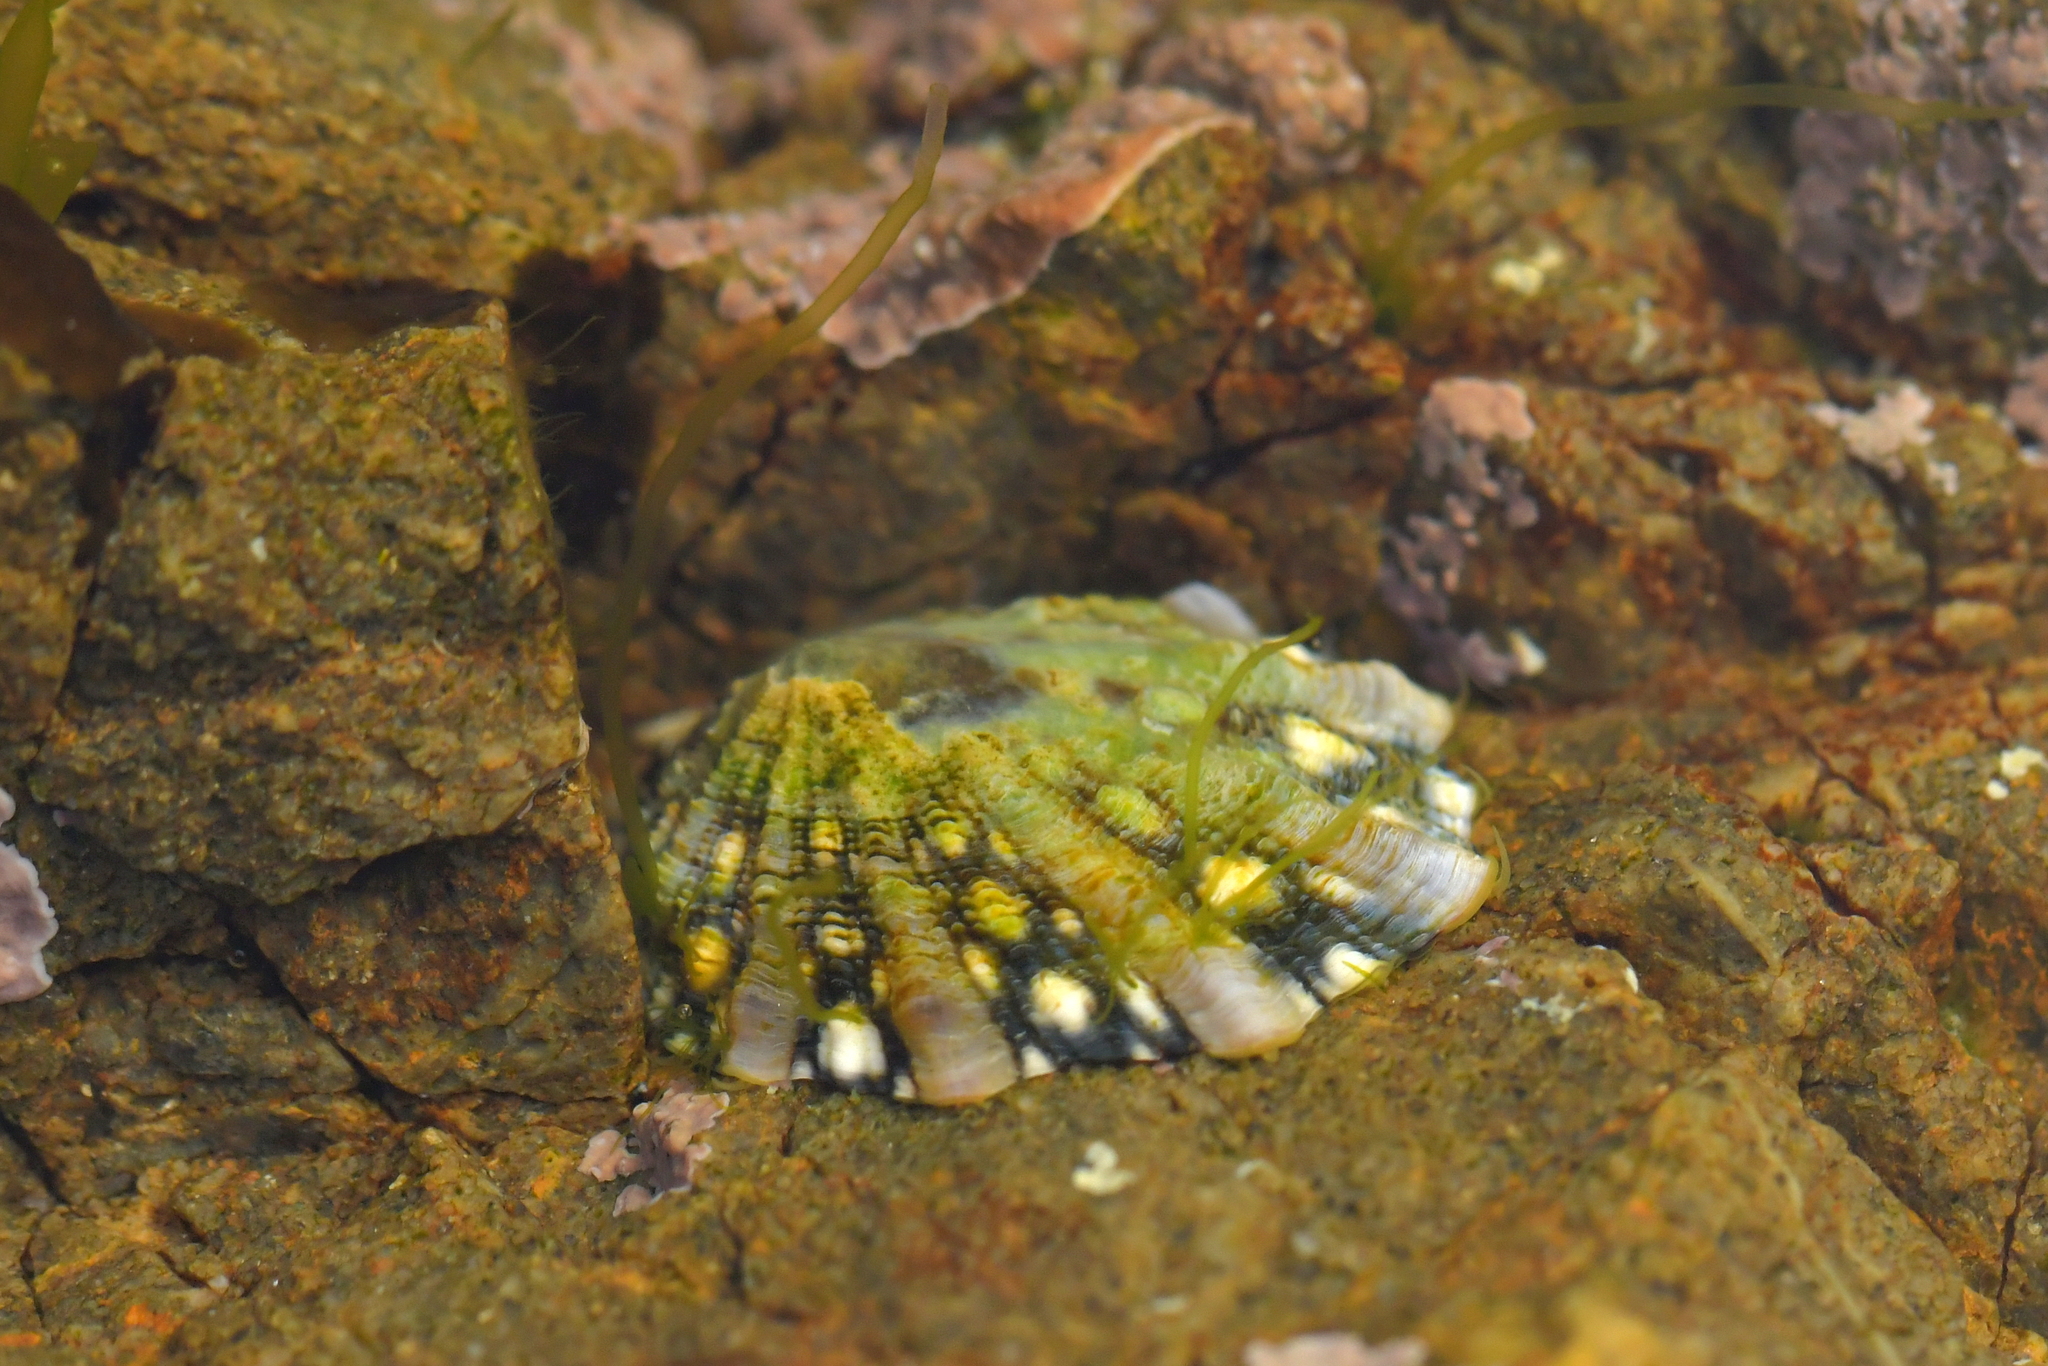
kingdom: Animalia
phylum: Mollusca
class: Gastropoda
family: Nacellidae
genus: Cellana
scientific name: Cellana ornata
